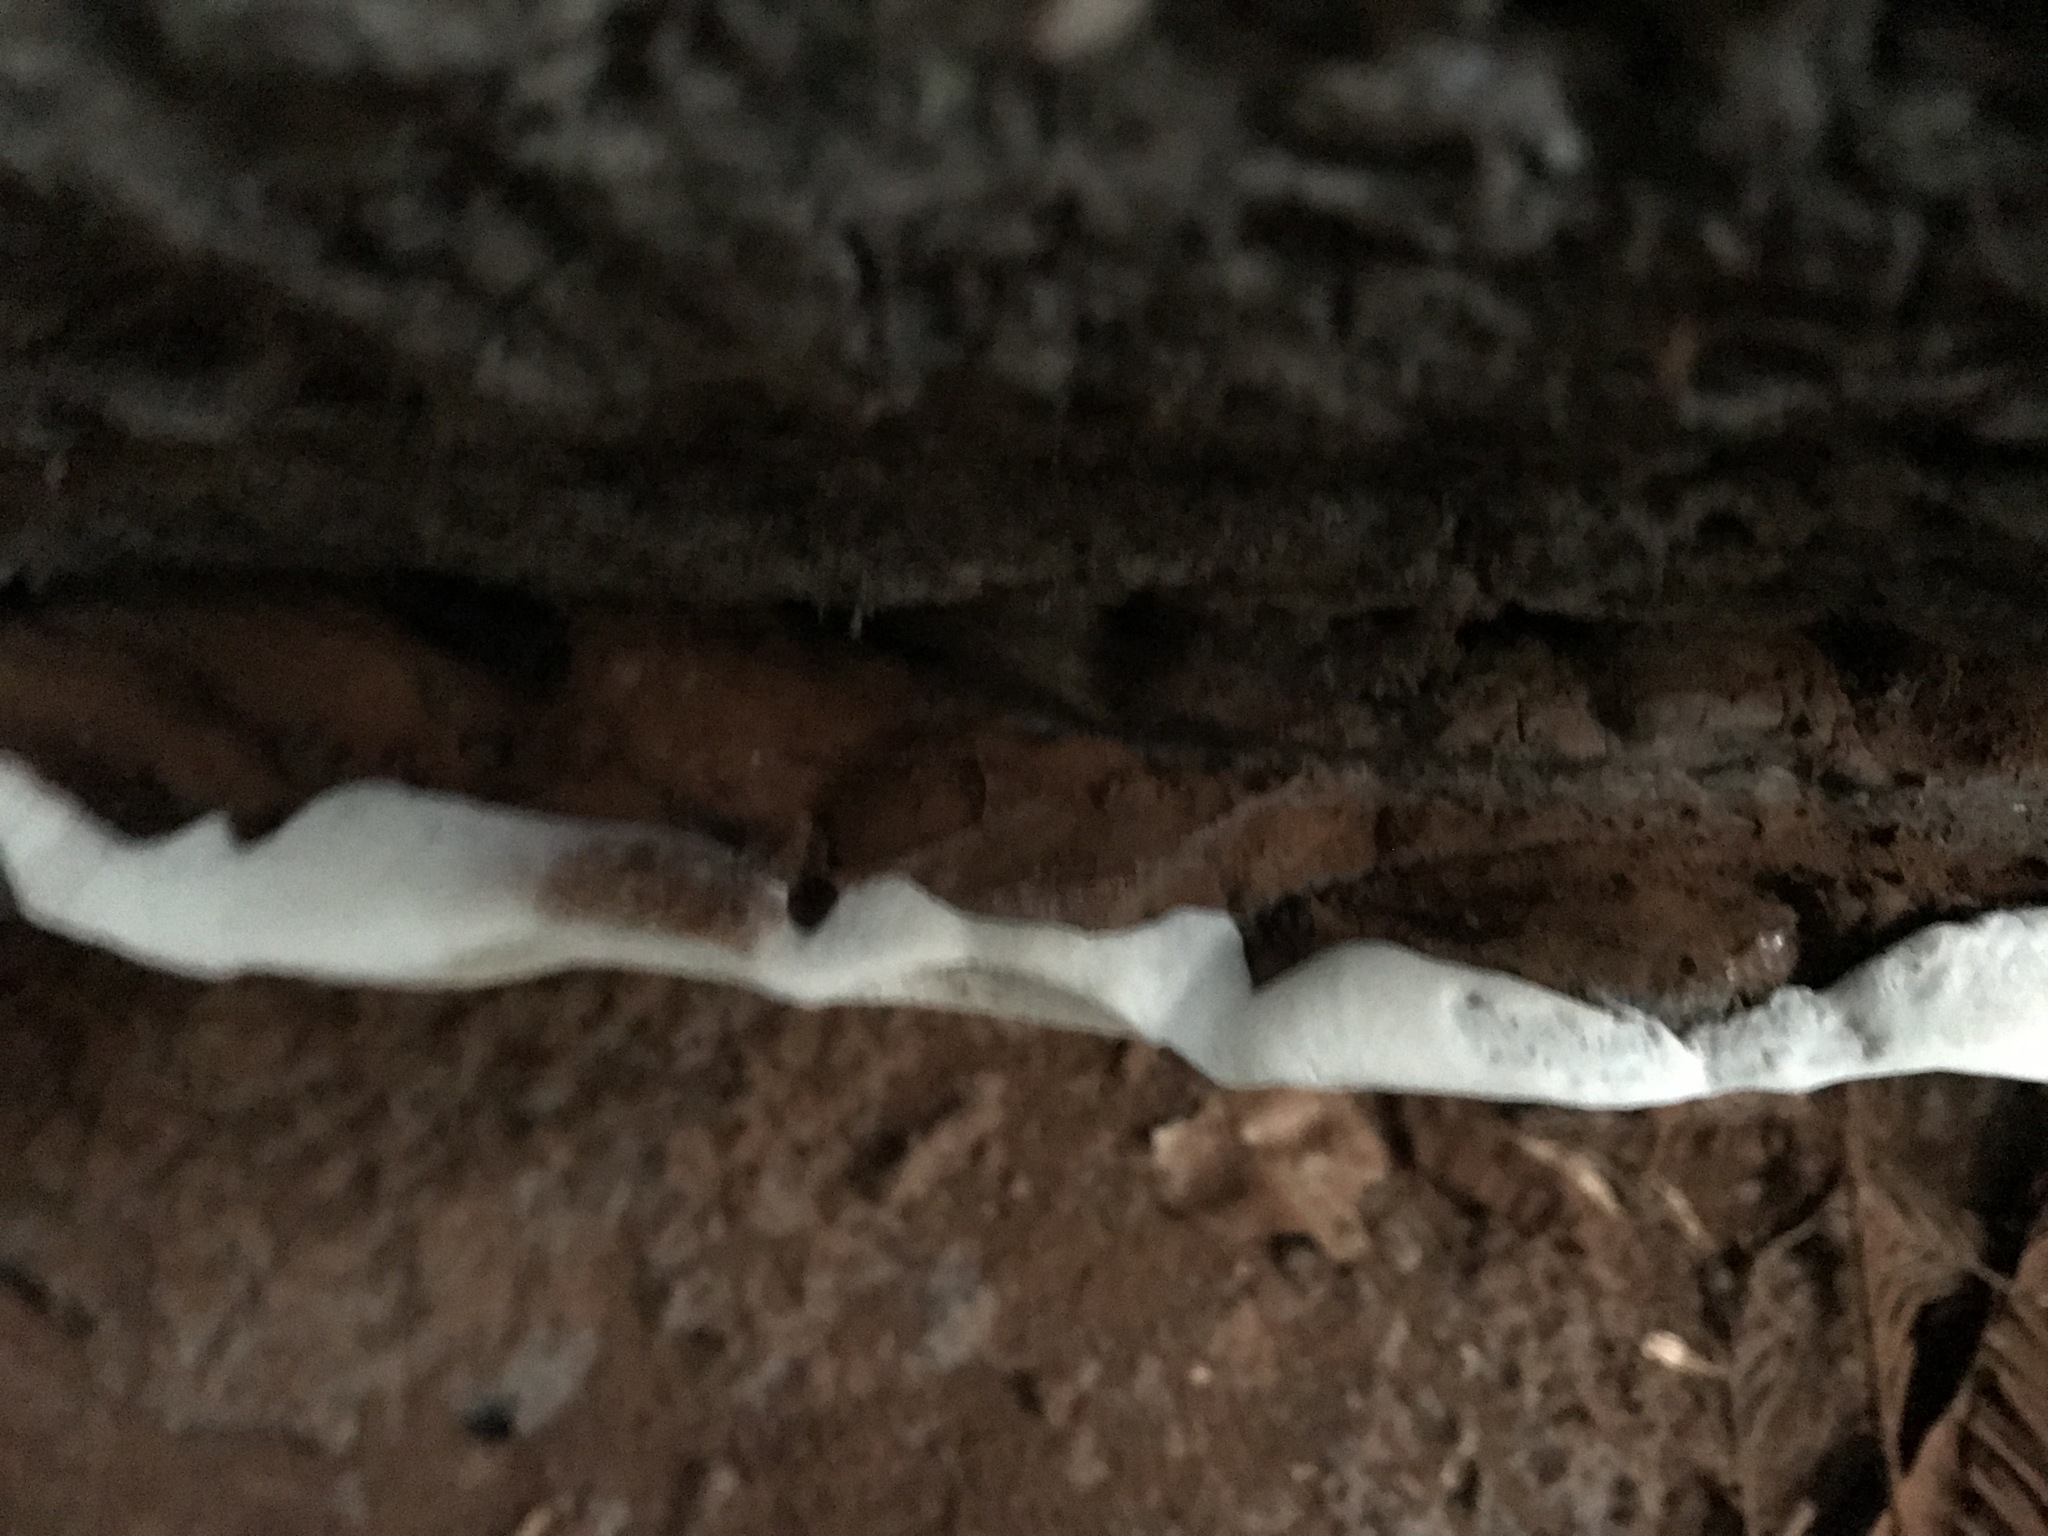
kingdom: Fungi
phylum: Basidiomycota
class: Agaricomycetes
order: Polyporales
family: Polyporaceae
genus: Ganoderma
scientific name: Ganoderma brownii
